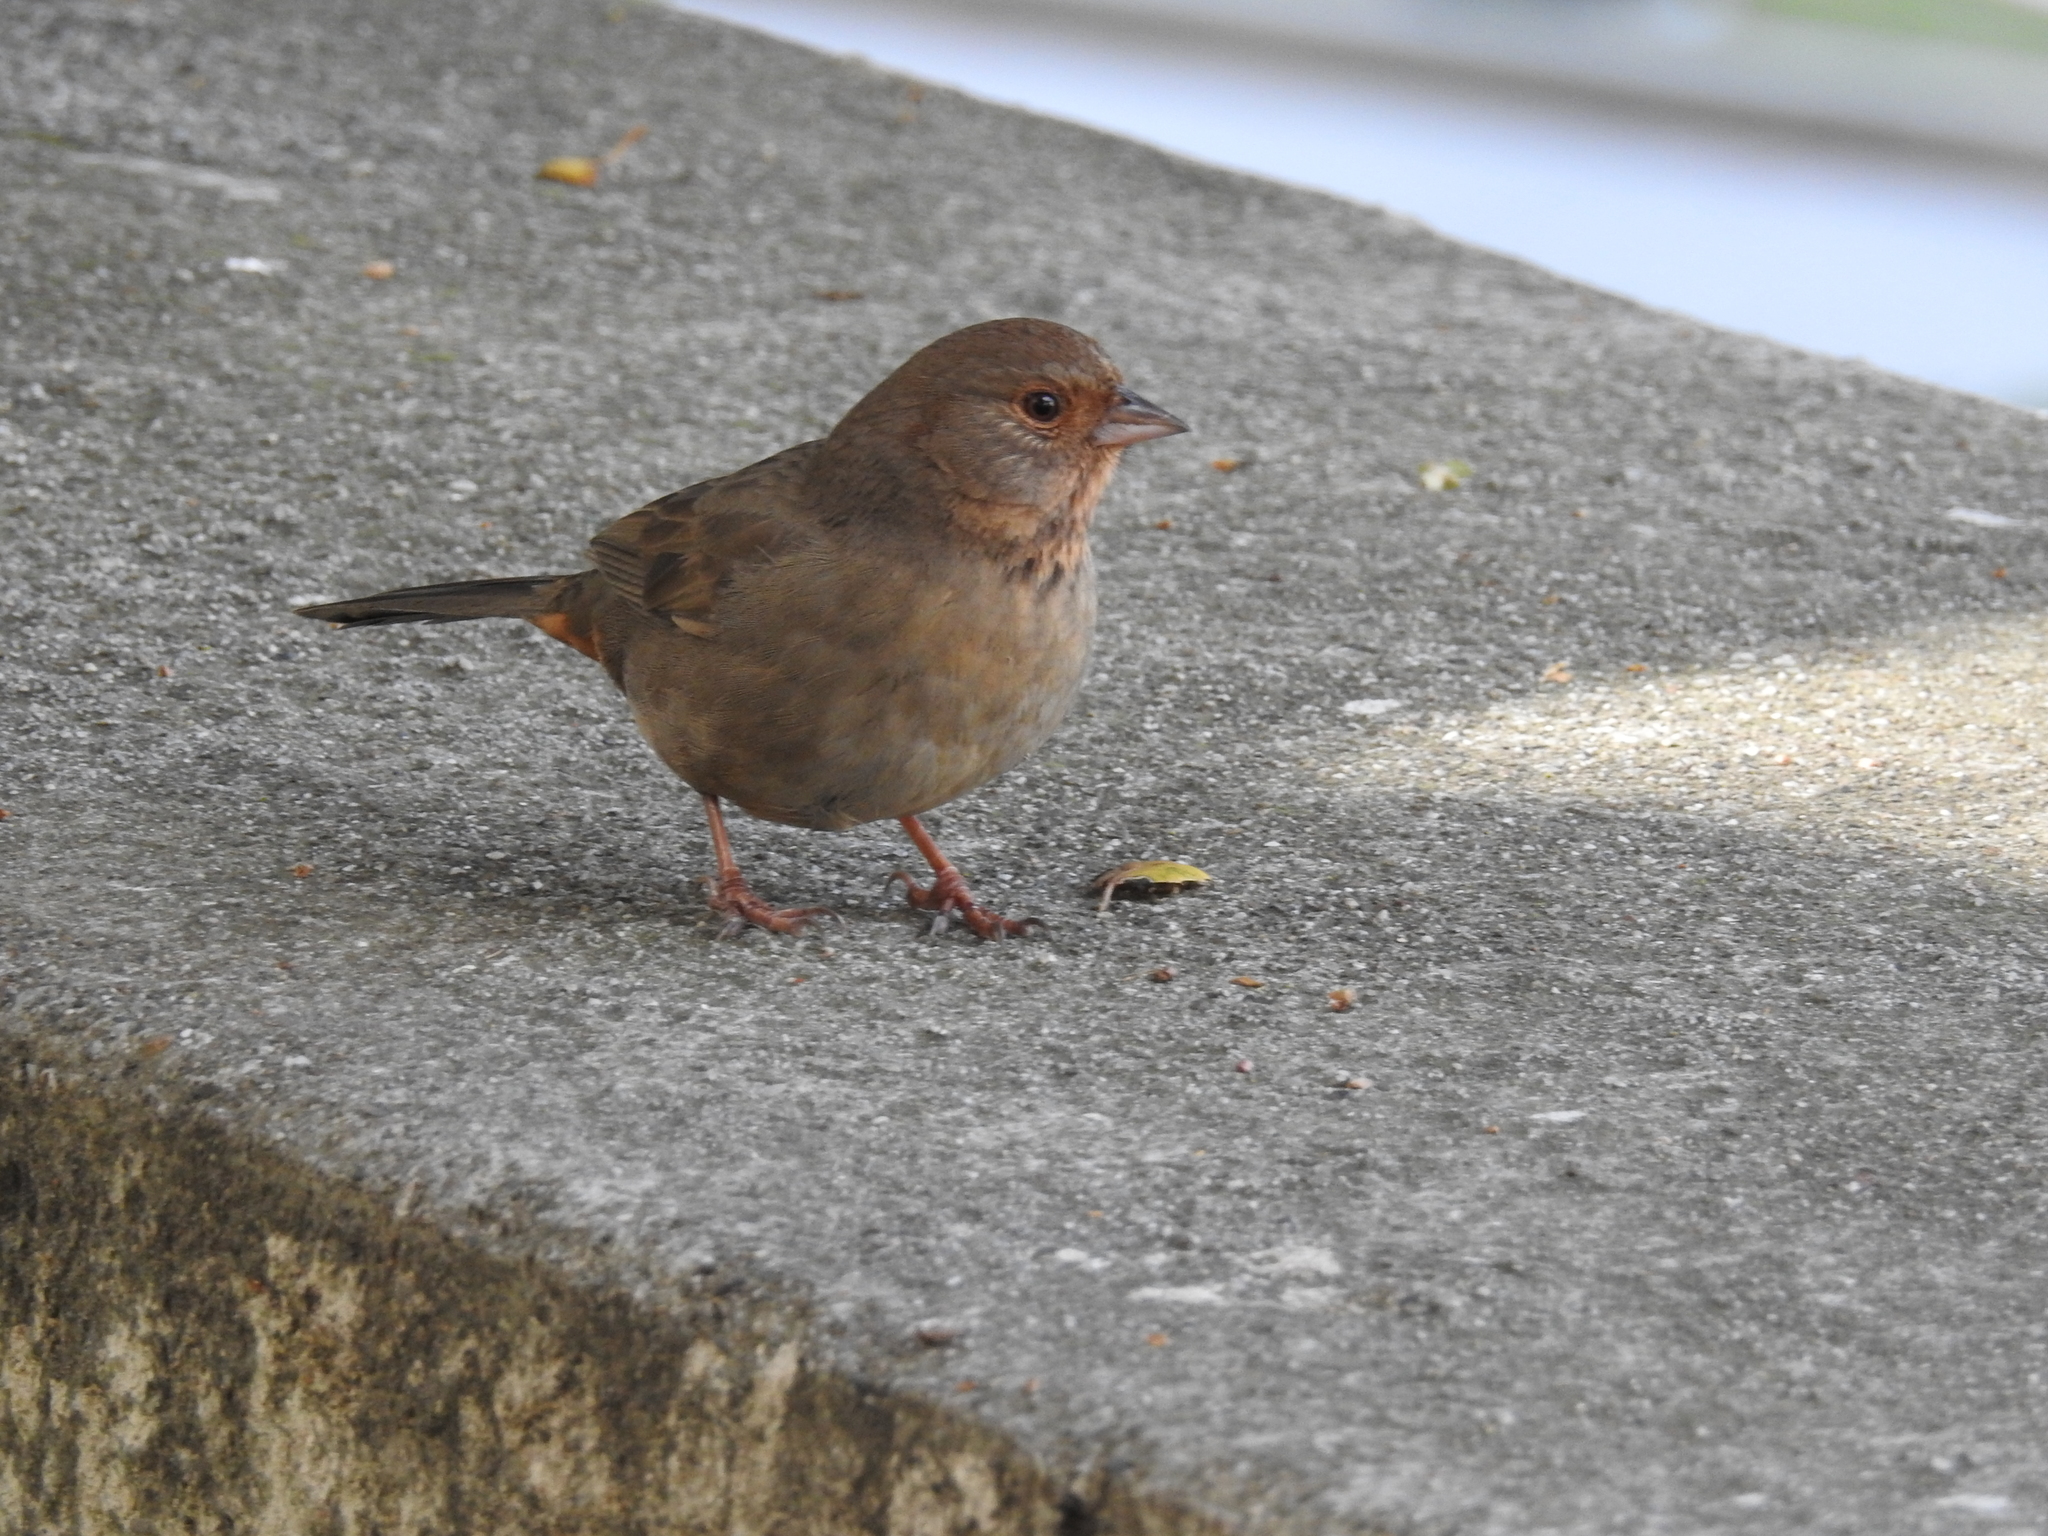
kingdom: Animalia
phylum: Chordata
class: Aves
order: Passeriformes
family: Passerellidae
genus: Melozone
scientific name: Melozone crissalis
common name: California towhee
